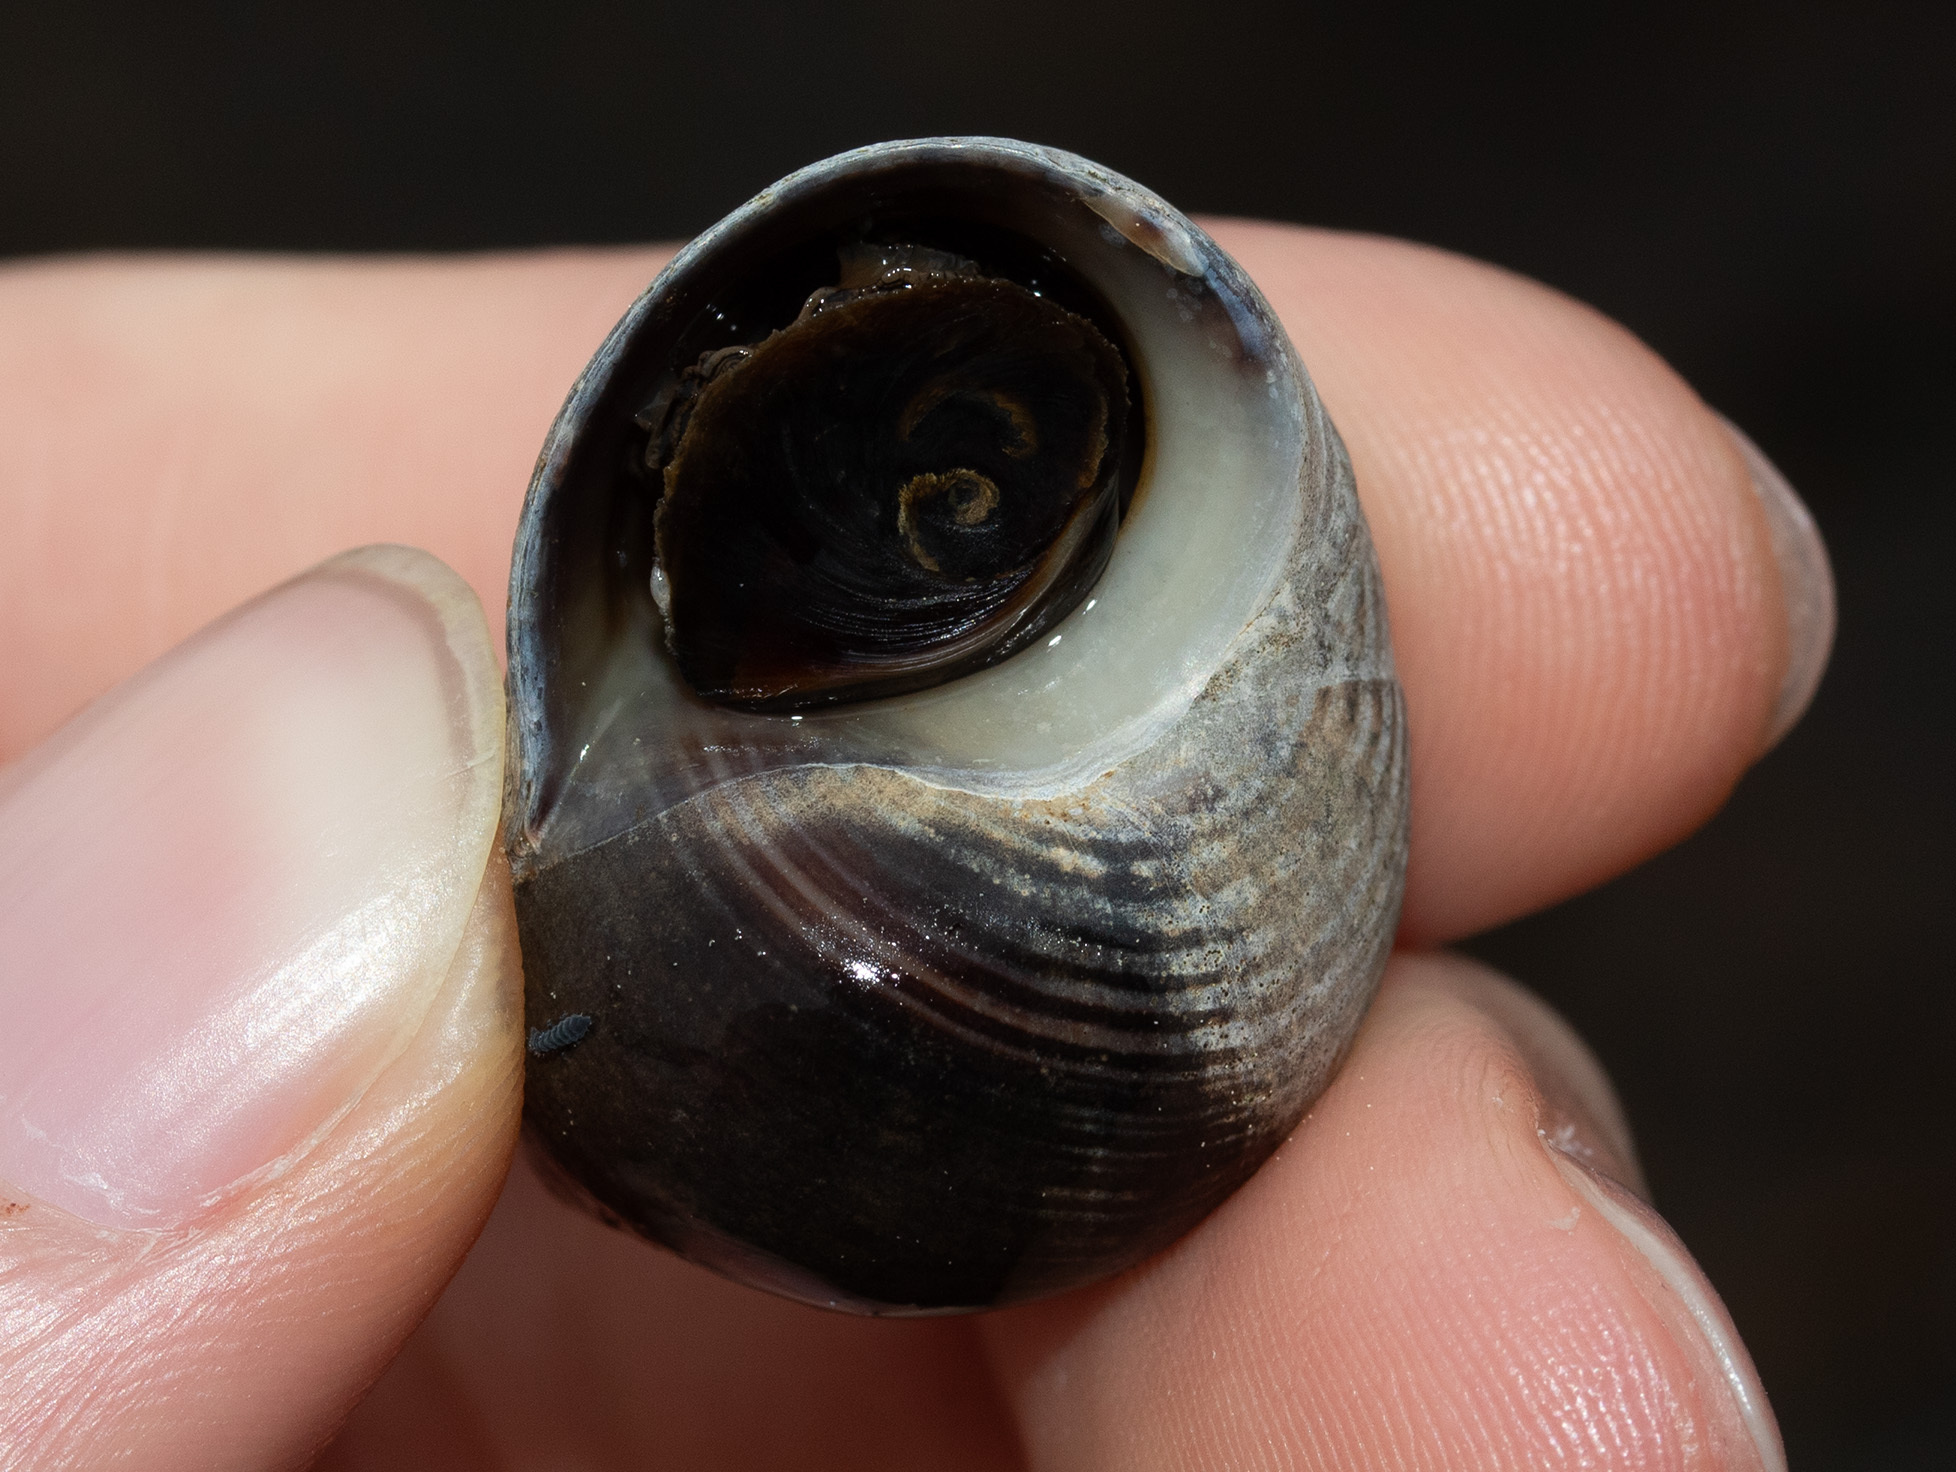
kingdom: Animalia
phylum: Mollusca
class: Gastropoda
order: Littorinimorpha
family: Littorinidae
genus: Littorina
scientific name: Littorina littorea
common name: Common periwinkle
